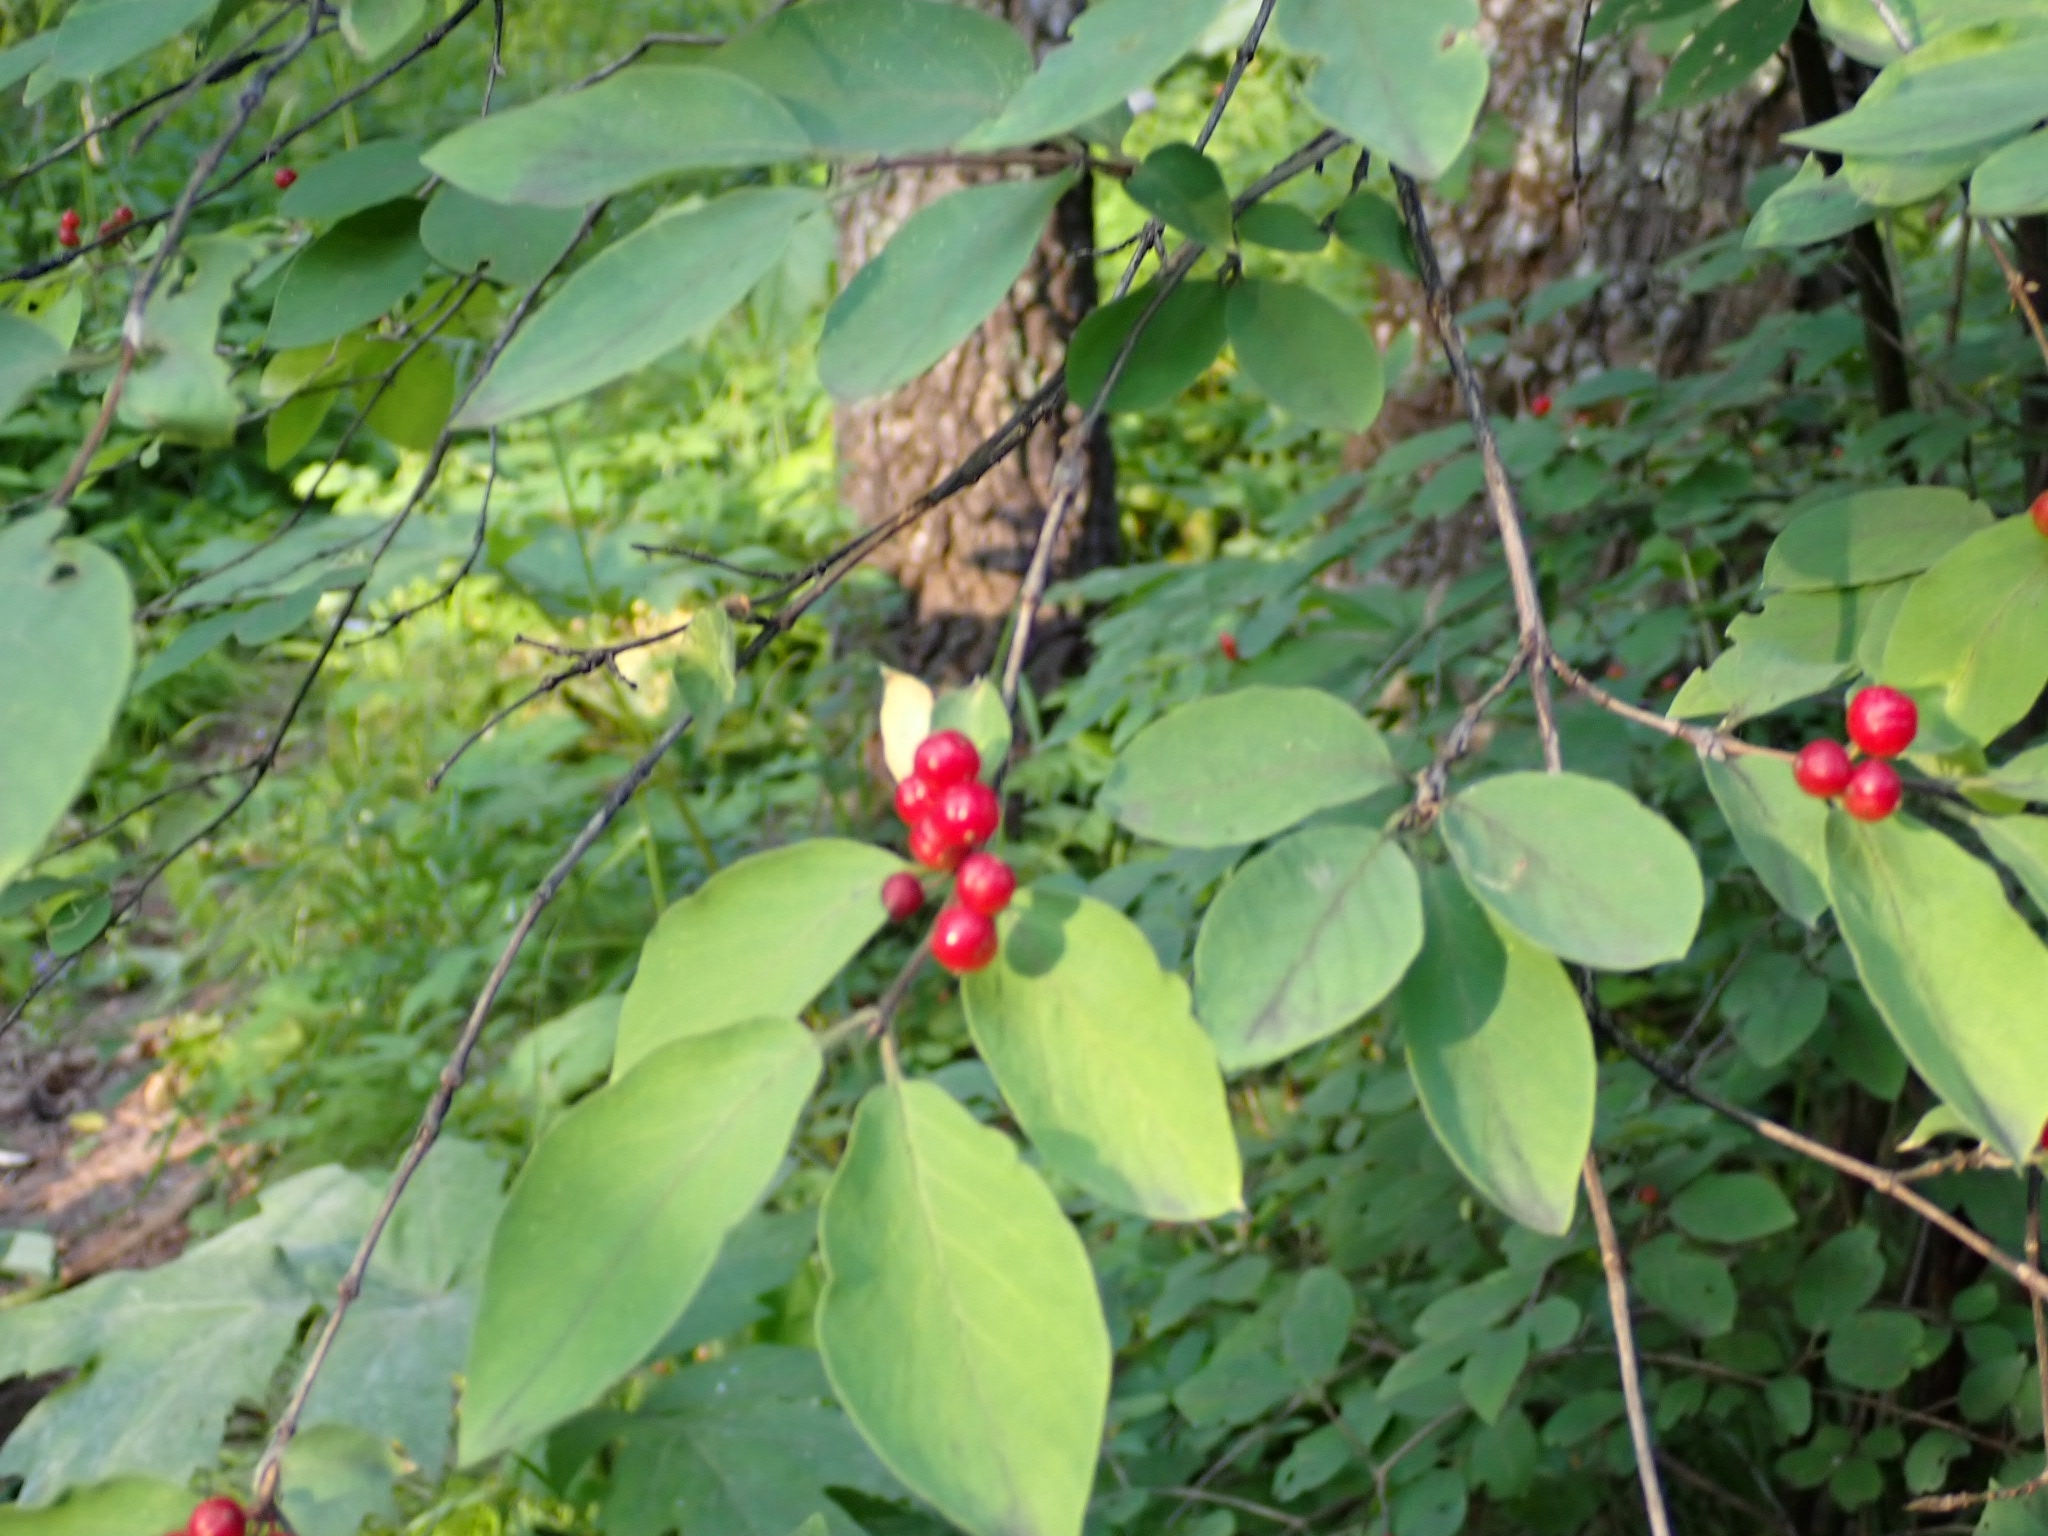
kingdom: Plantae
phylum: Tracheophyta
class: Magnoliopsida
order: Dipsacales
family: Caprifoliaceae
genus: Lonicera
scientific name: Lonicera xylosteum
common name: Fly honeysuckle
